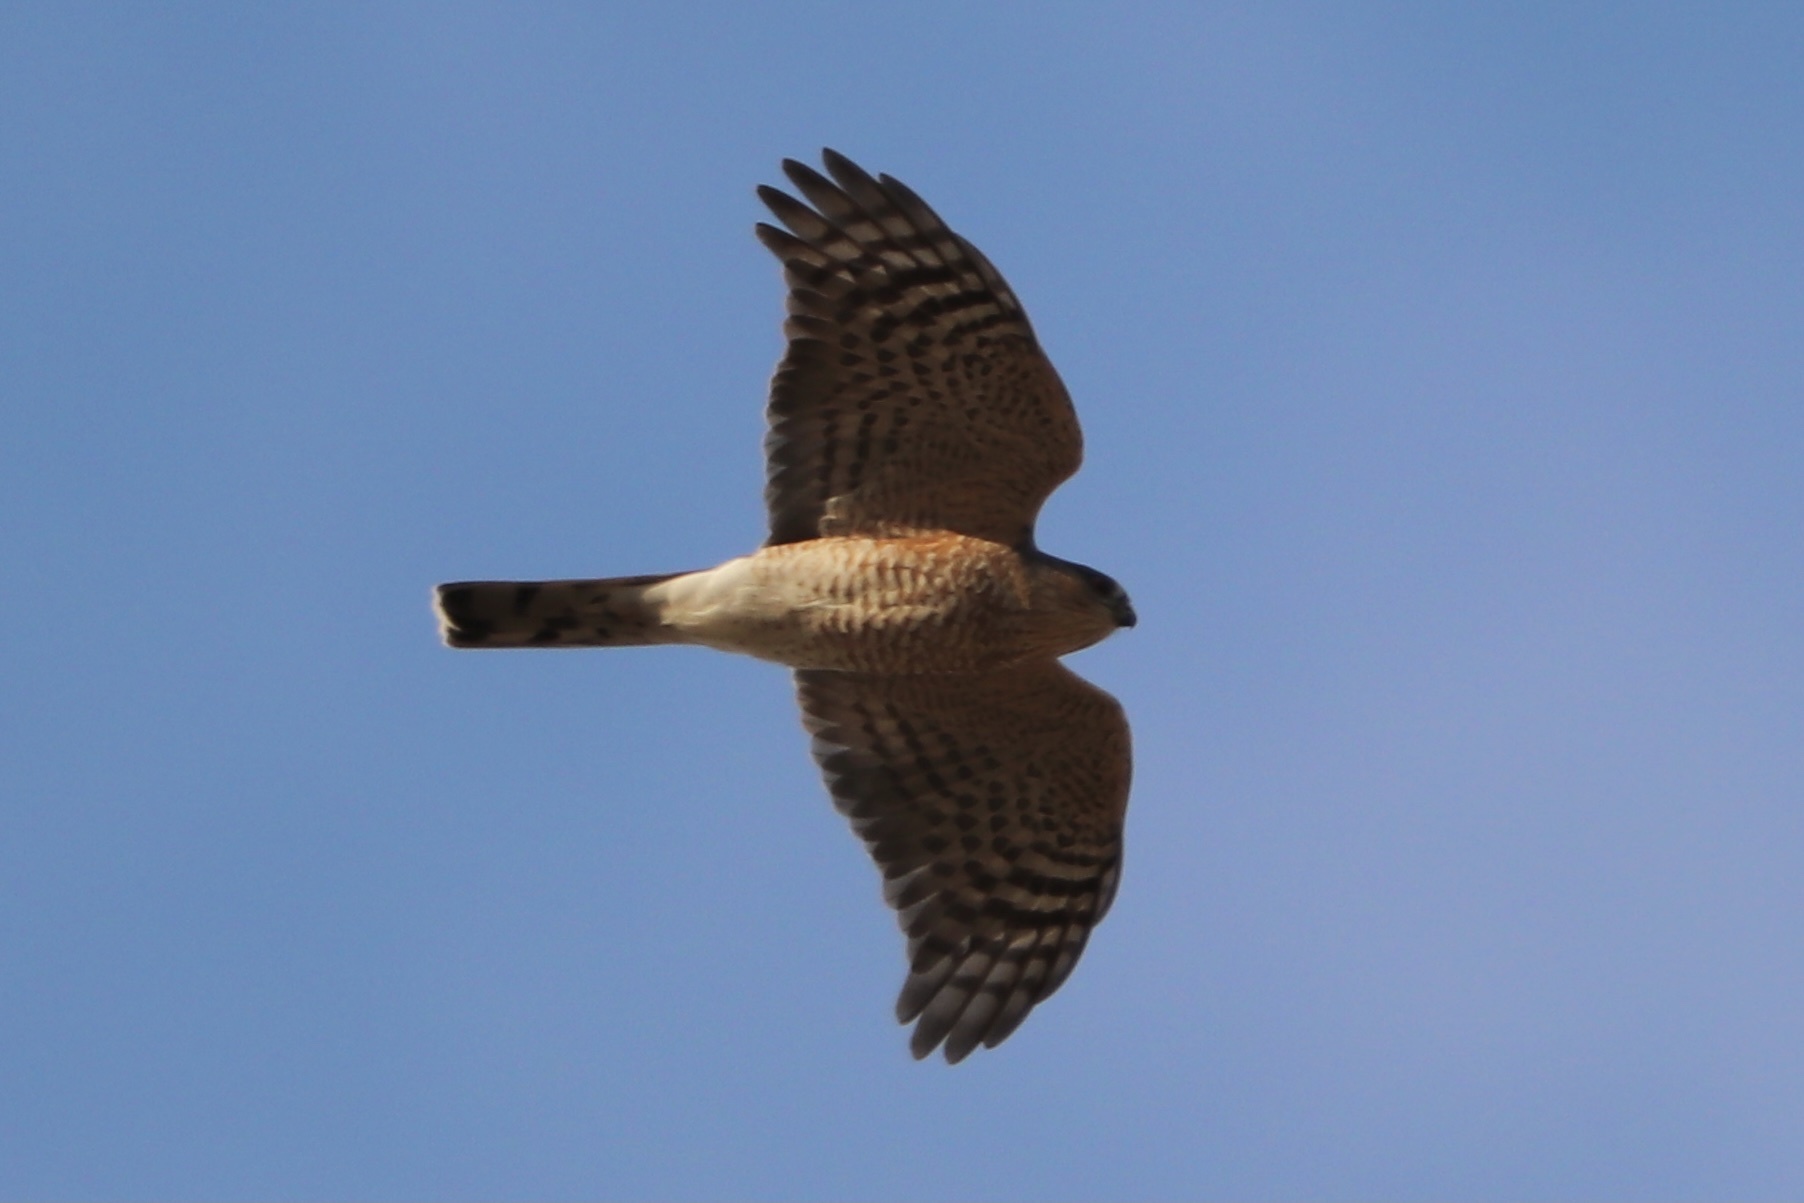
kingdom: Animalia
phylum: Chordata
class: Aves
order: Accipitriformes
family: Accipitridae
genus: Accipiter
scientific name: Accipiter striatus
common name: Sharp-shinned hawk
